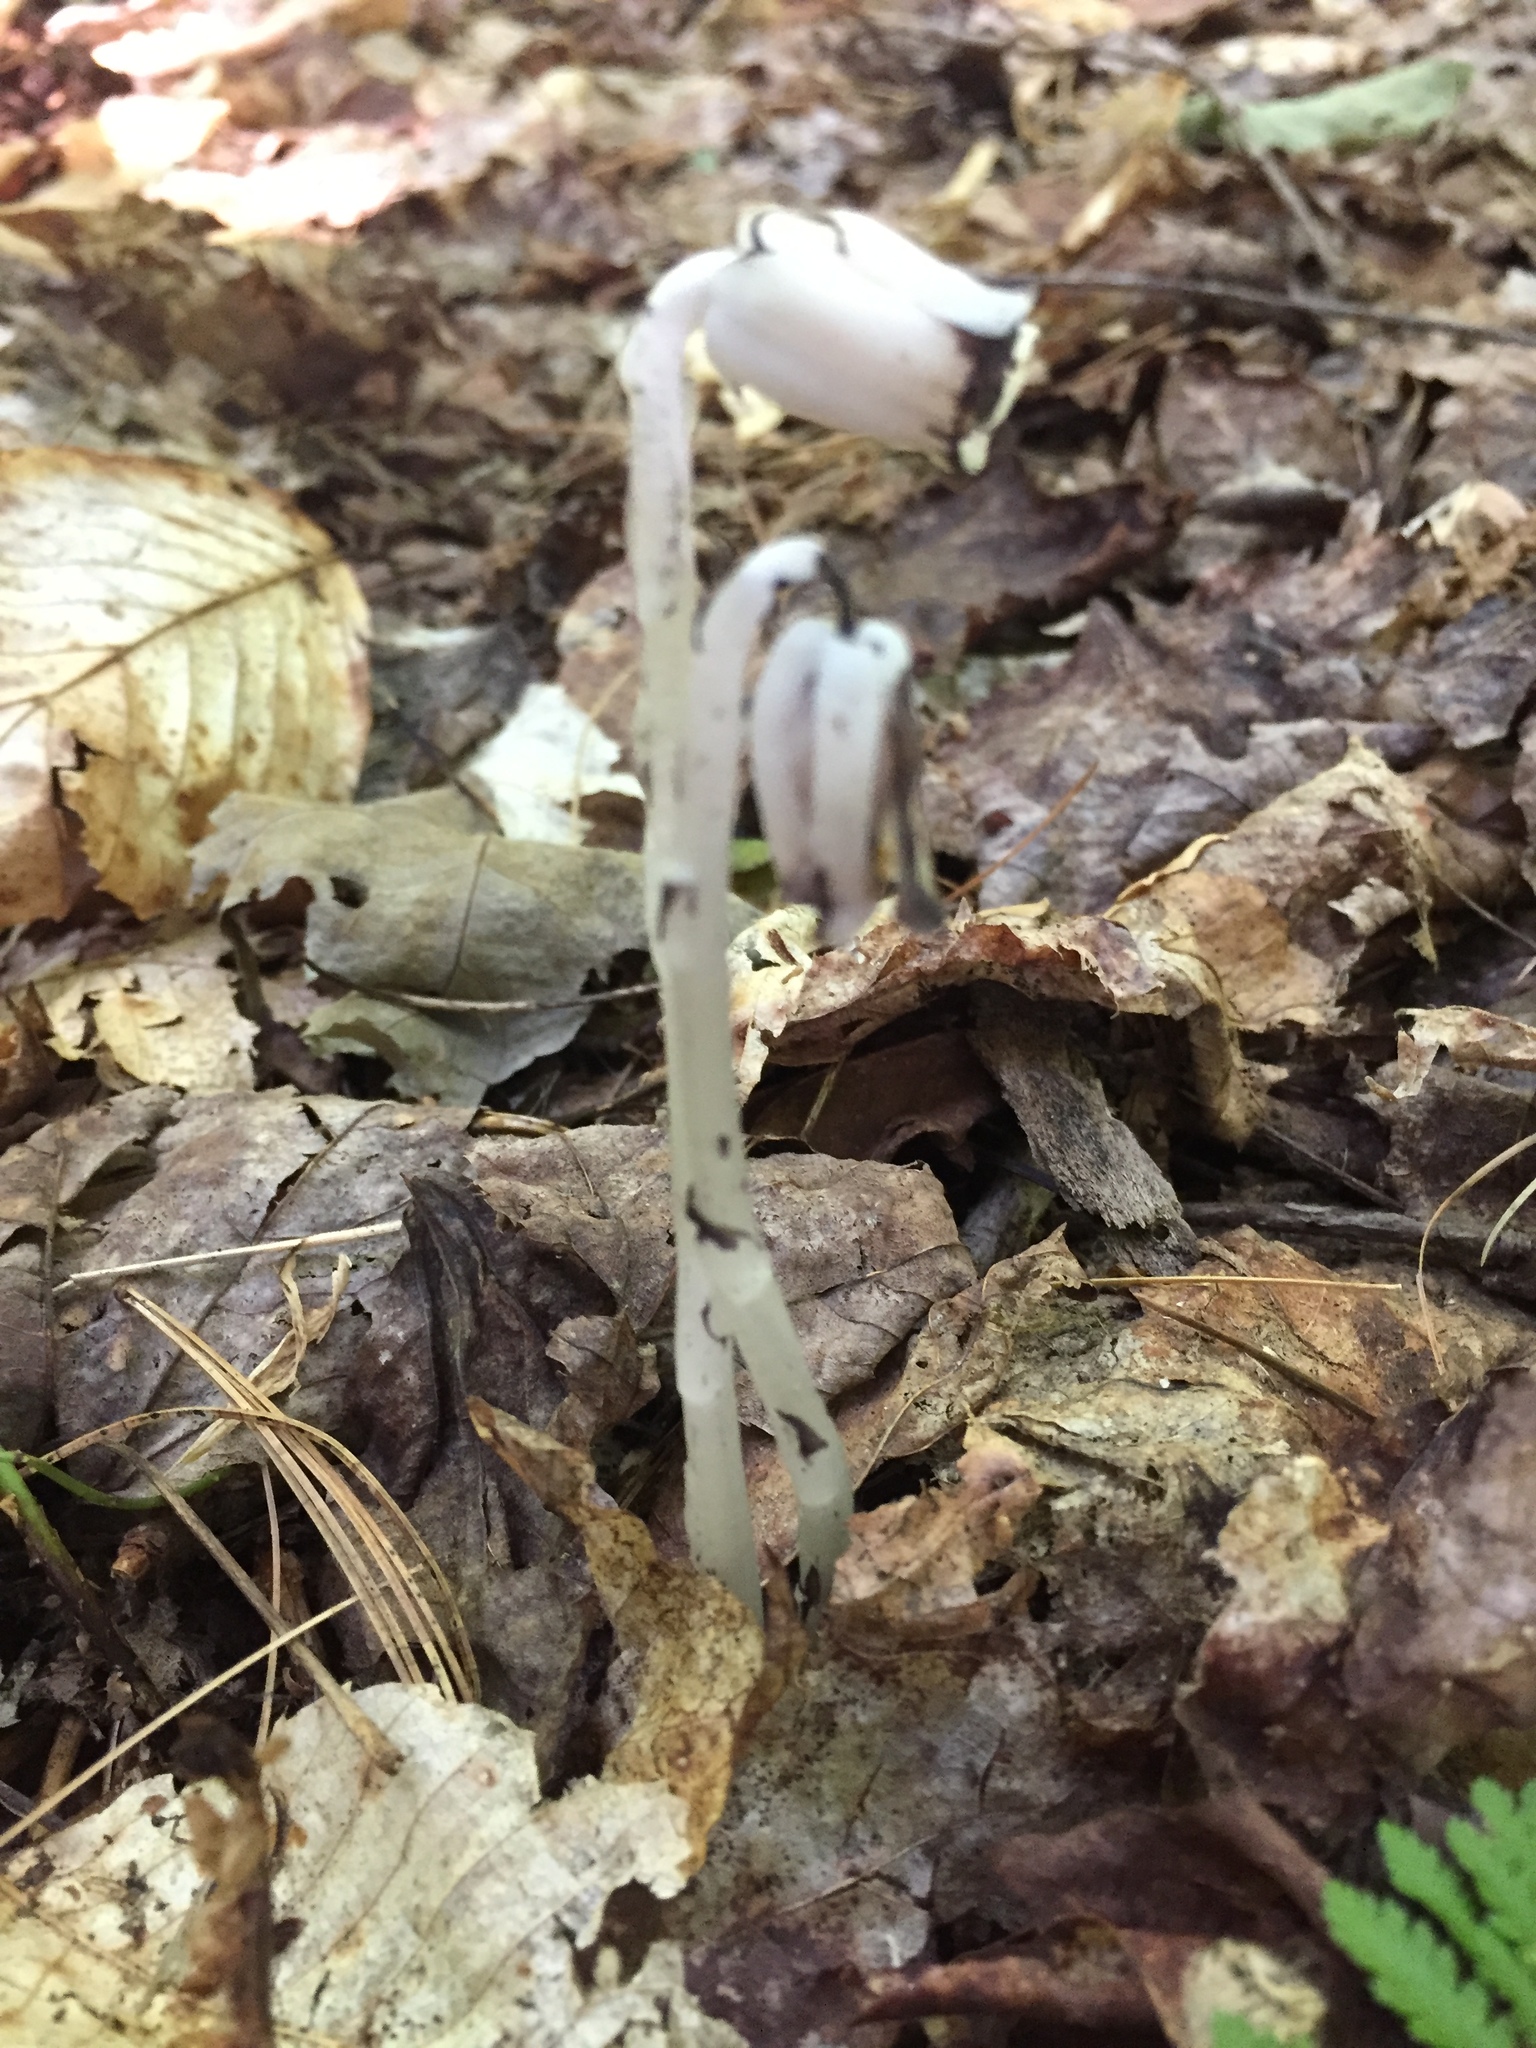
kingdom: Plantae
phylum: Tracheophyta
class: Magnoliopsida
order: Ericales
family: Ericaceae
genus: Monotropa
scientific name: Monotropa uniflora
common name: Convulsion root
